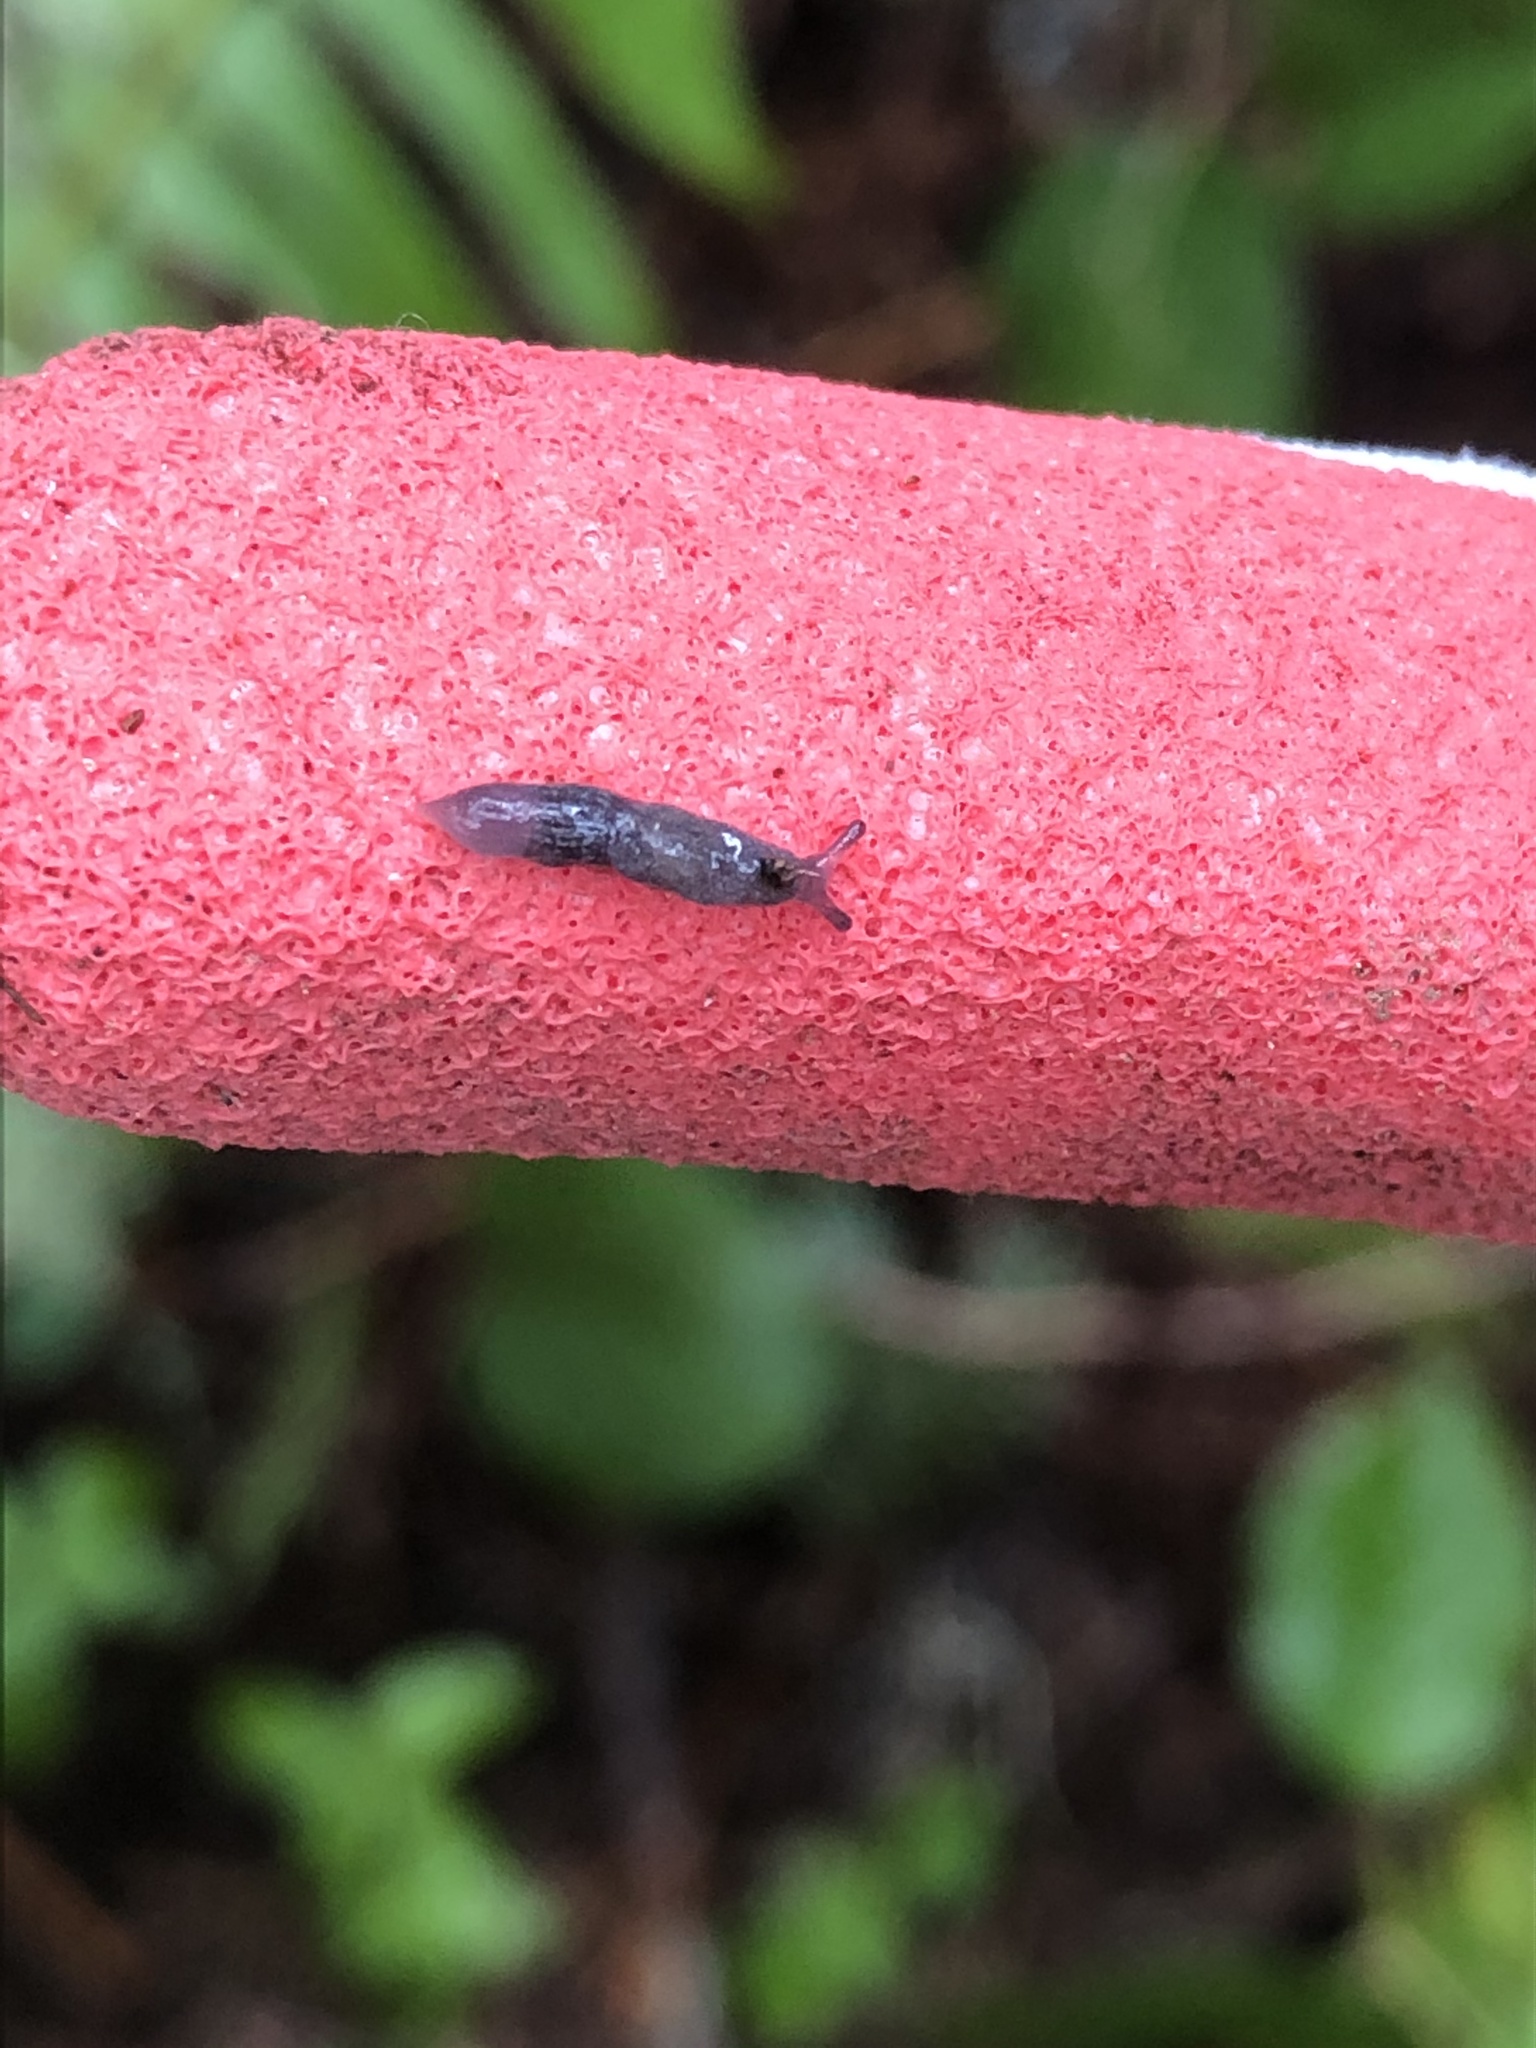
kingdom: Animalia
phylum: Mollusca
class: Gastropoda
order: Stylommatophora
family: Ariolimacidae
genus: Prophysaon
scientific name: Prophysaon coeruleum
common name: Blue-gray taildropper
